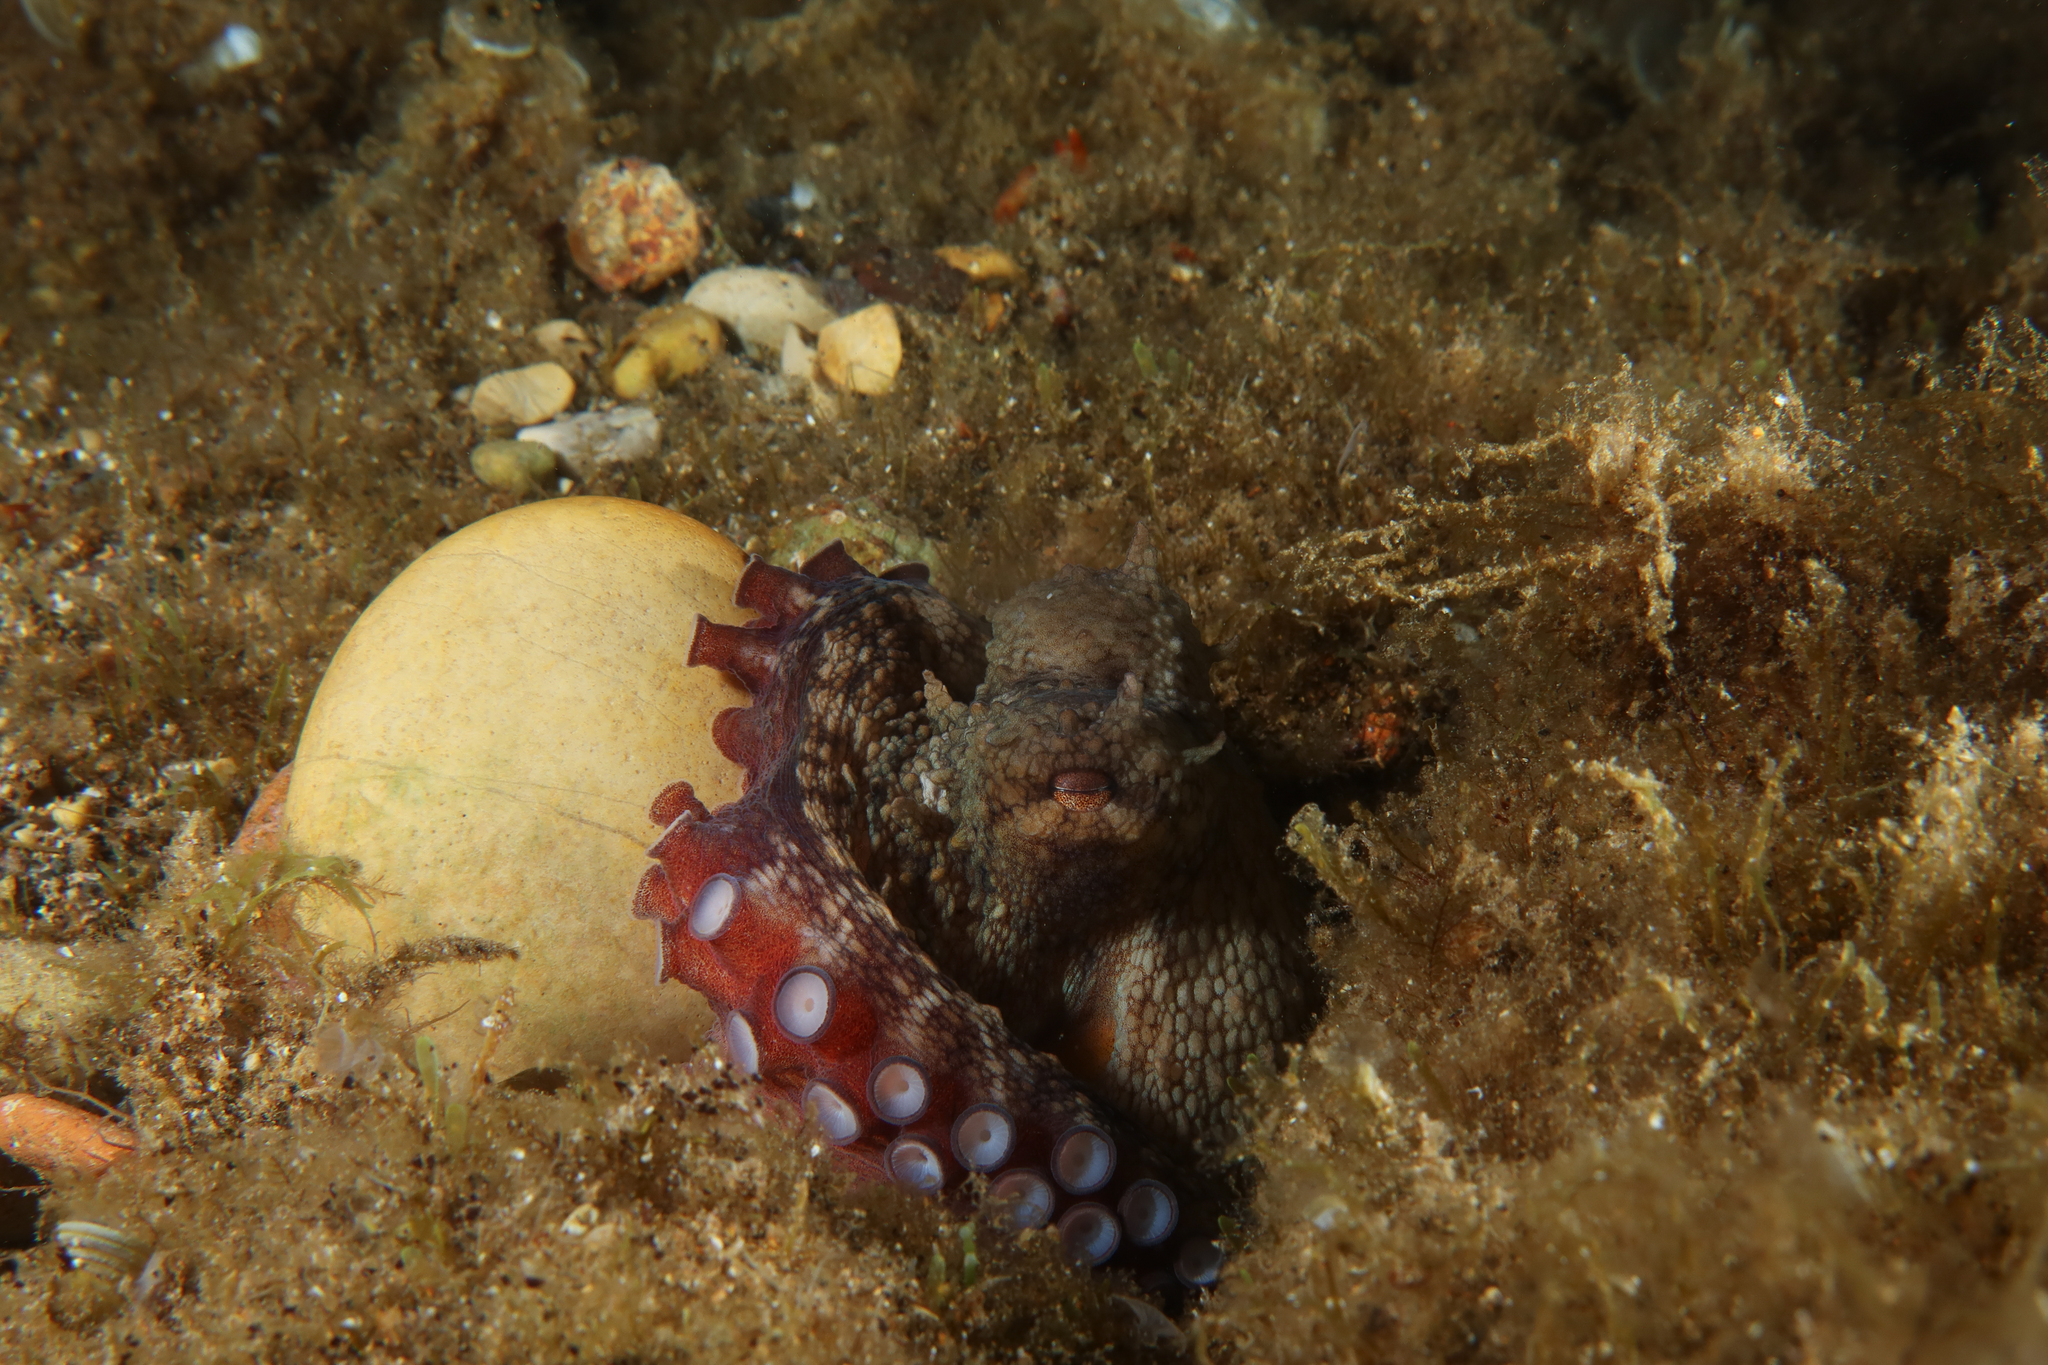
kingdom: Animalia
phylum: Mollusca
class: Cephalopoda
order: Octopoda
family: Octopodidae
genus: Octopus
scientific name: Octopus vulgaris
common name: Common octopus
